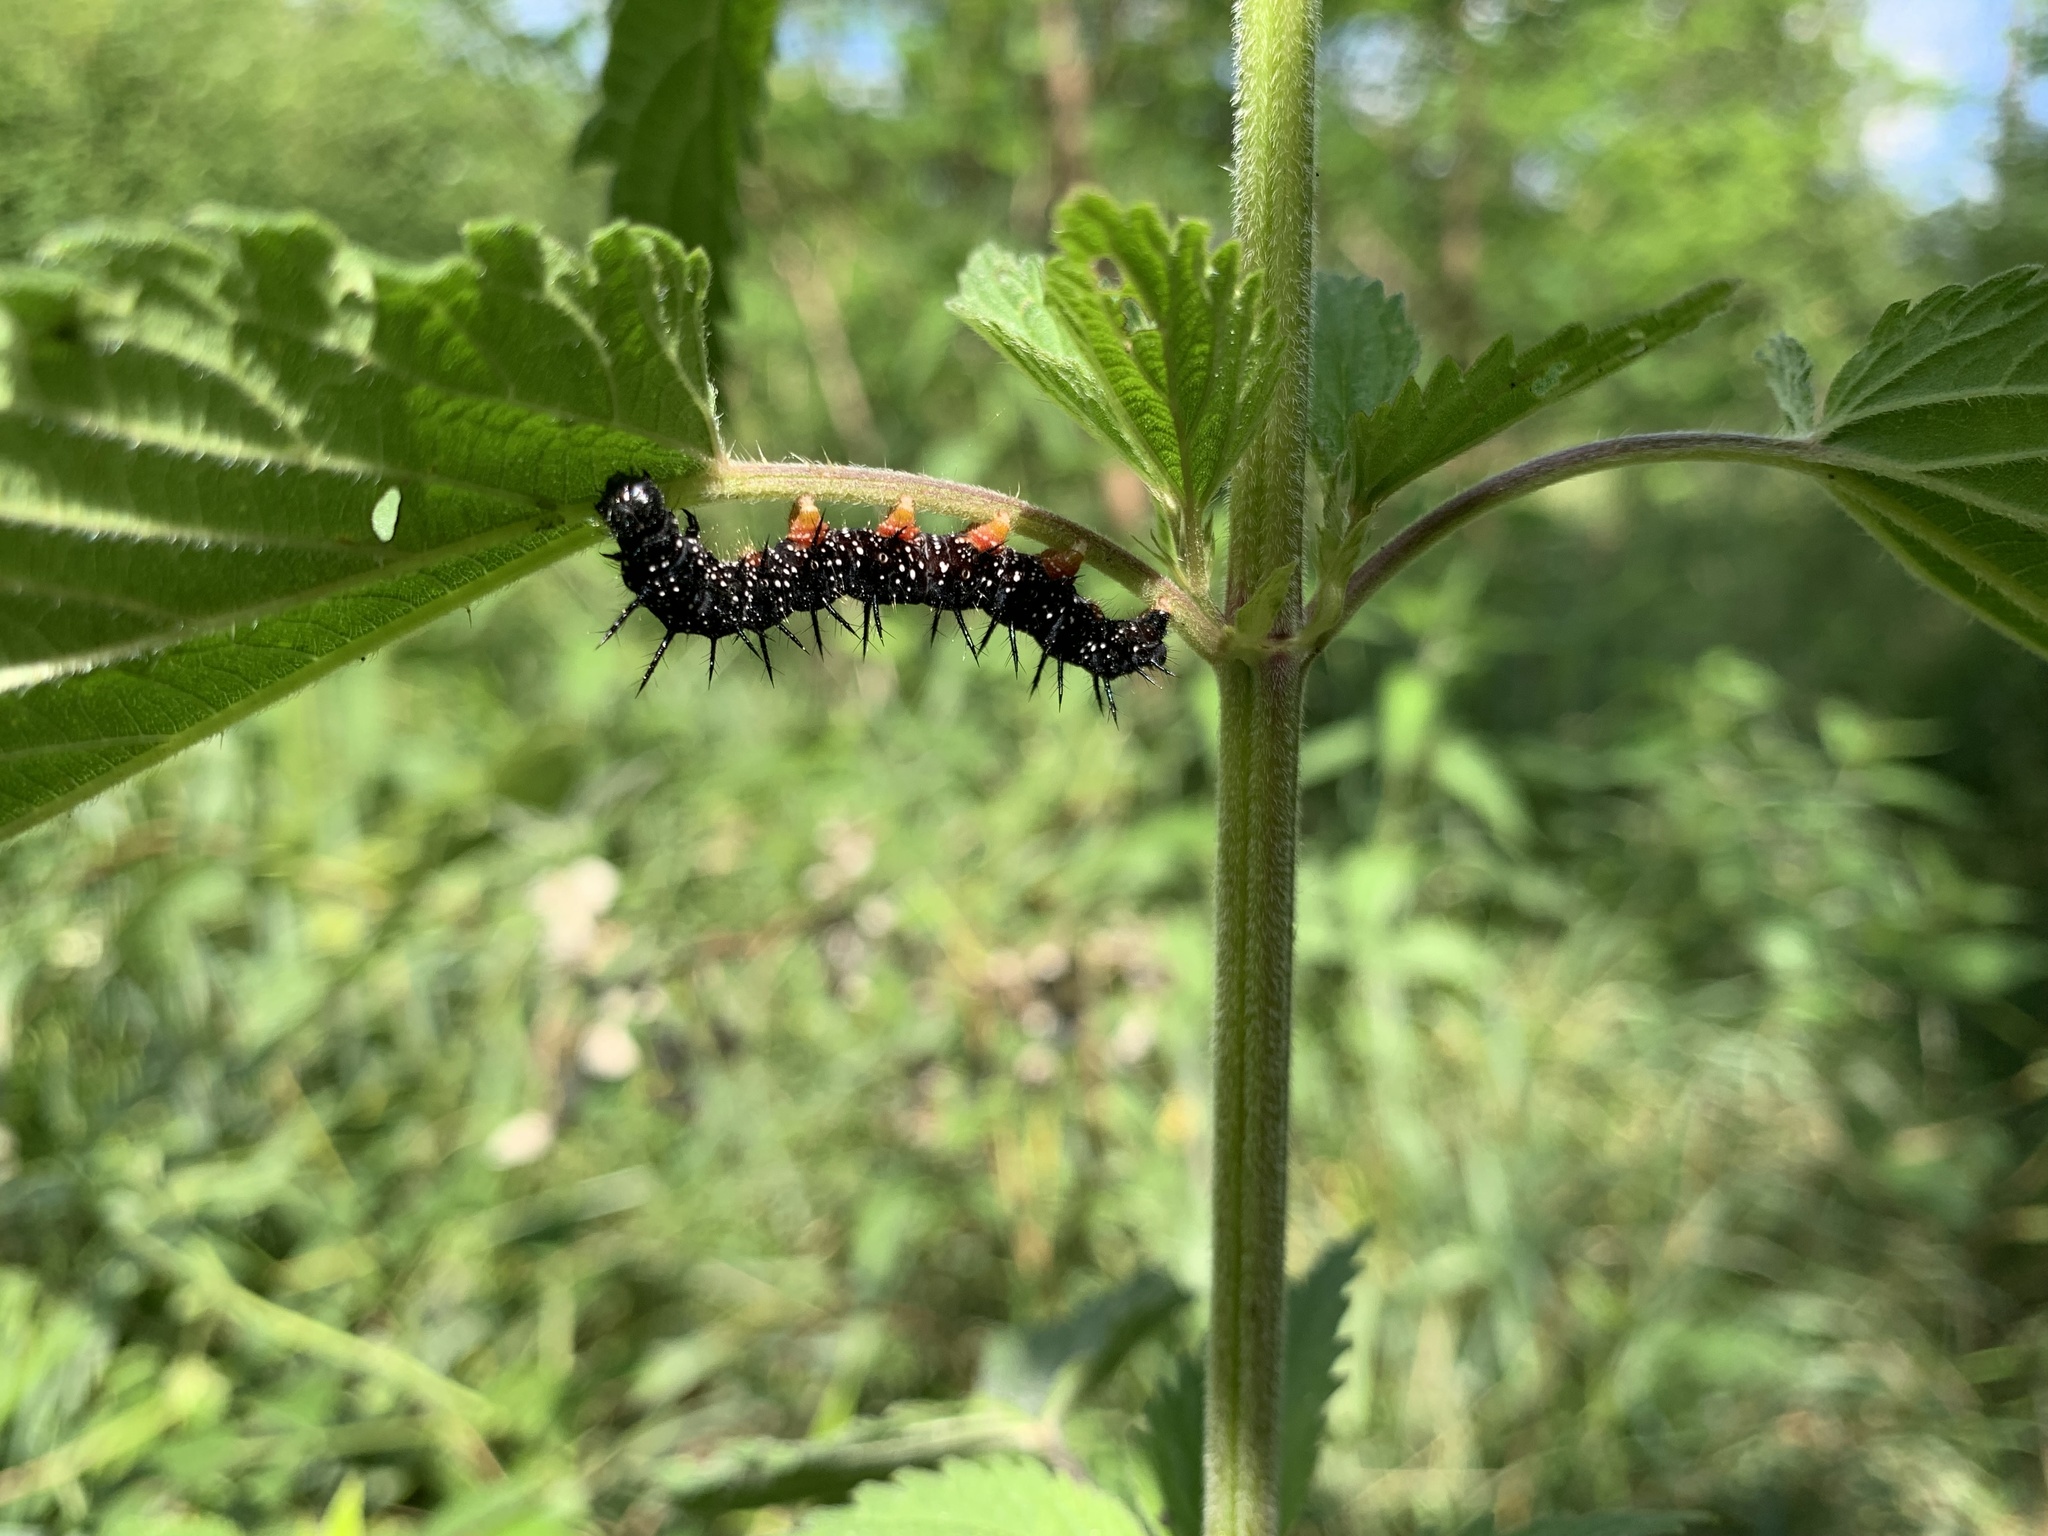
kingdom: Animalia
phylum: Arthropoda
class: Insecta
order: Lepidoptera
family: Nymphalidae
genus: Aglais
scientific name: Aglais io
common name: Peacock
